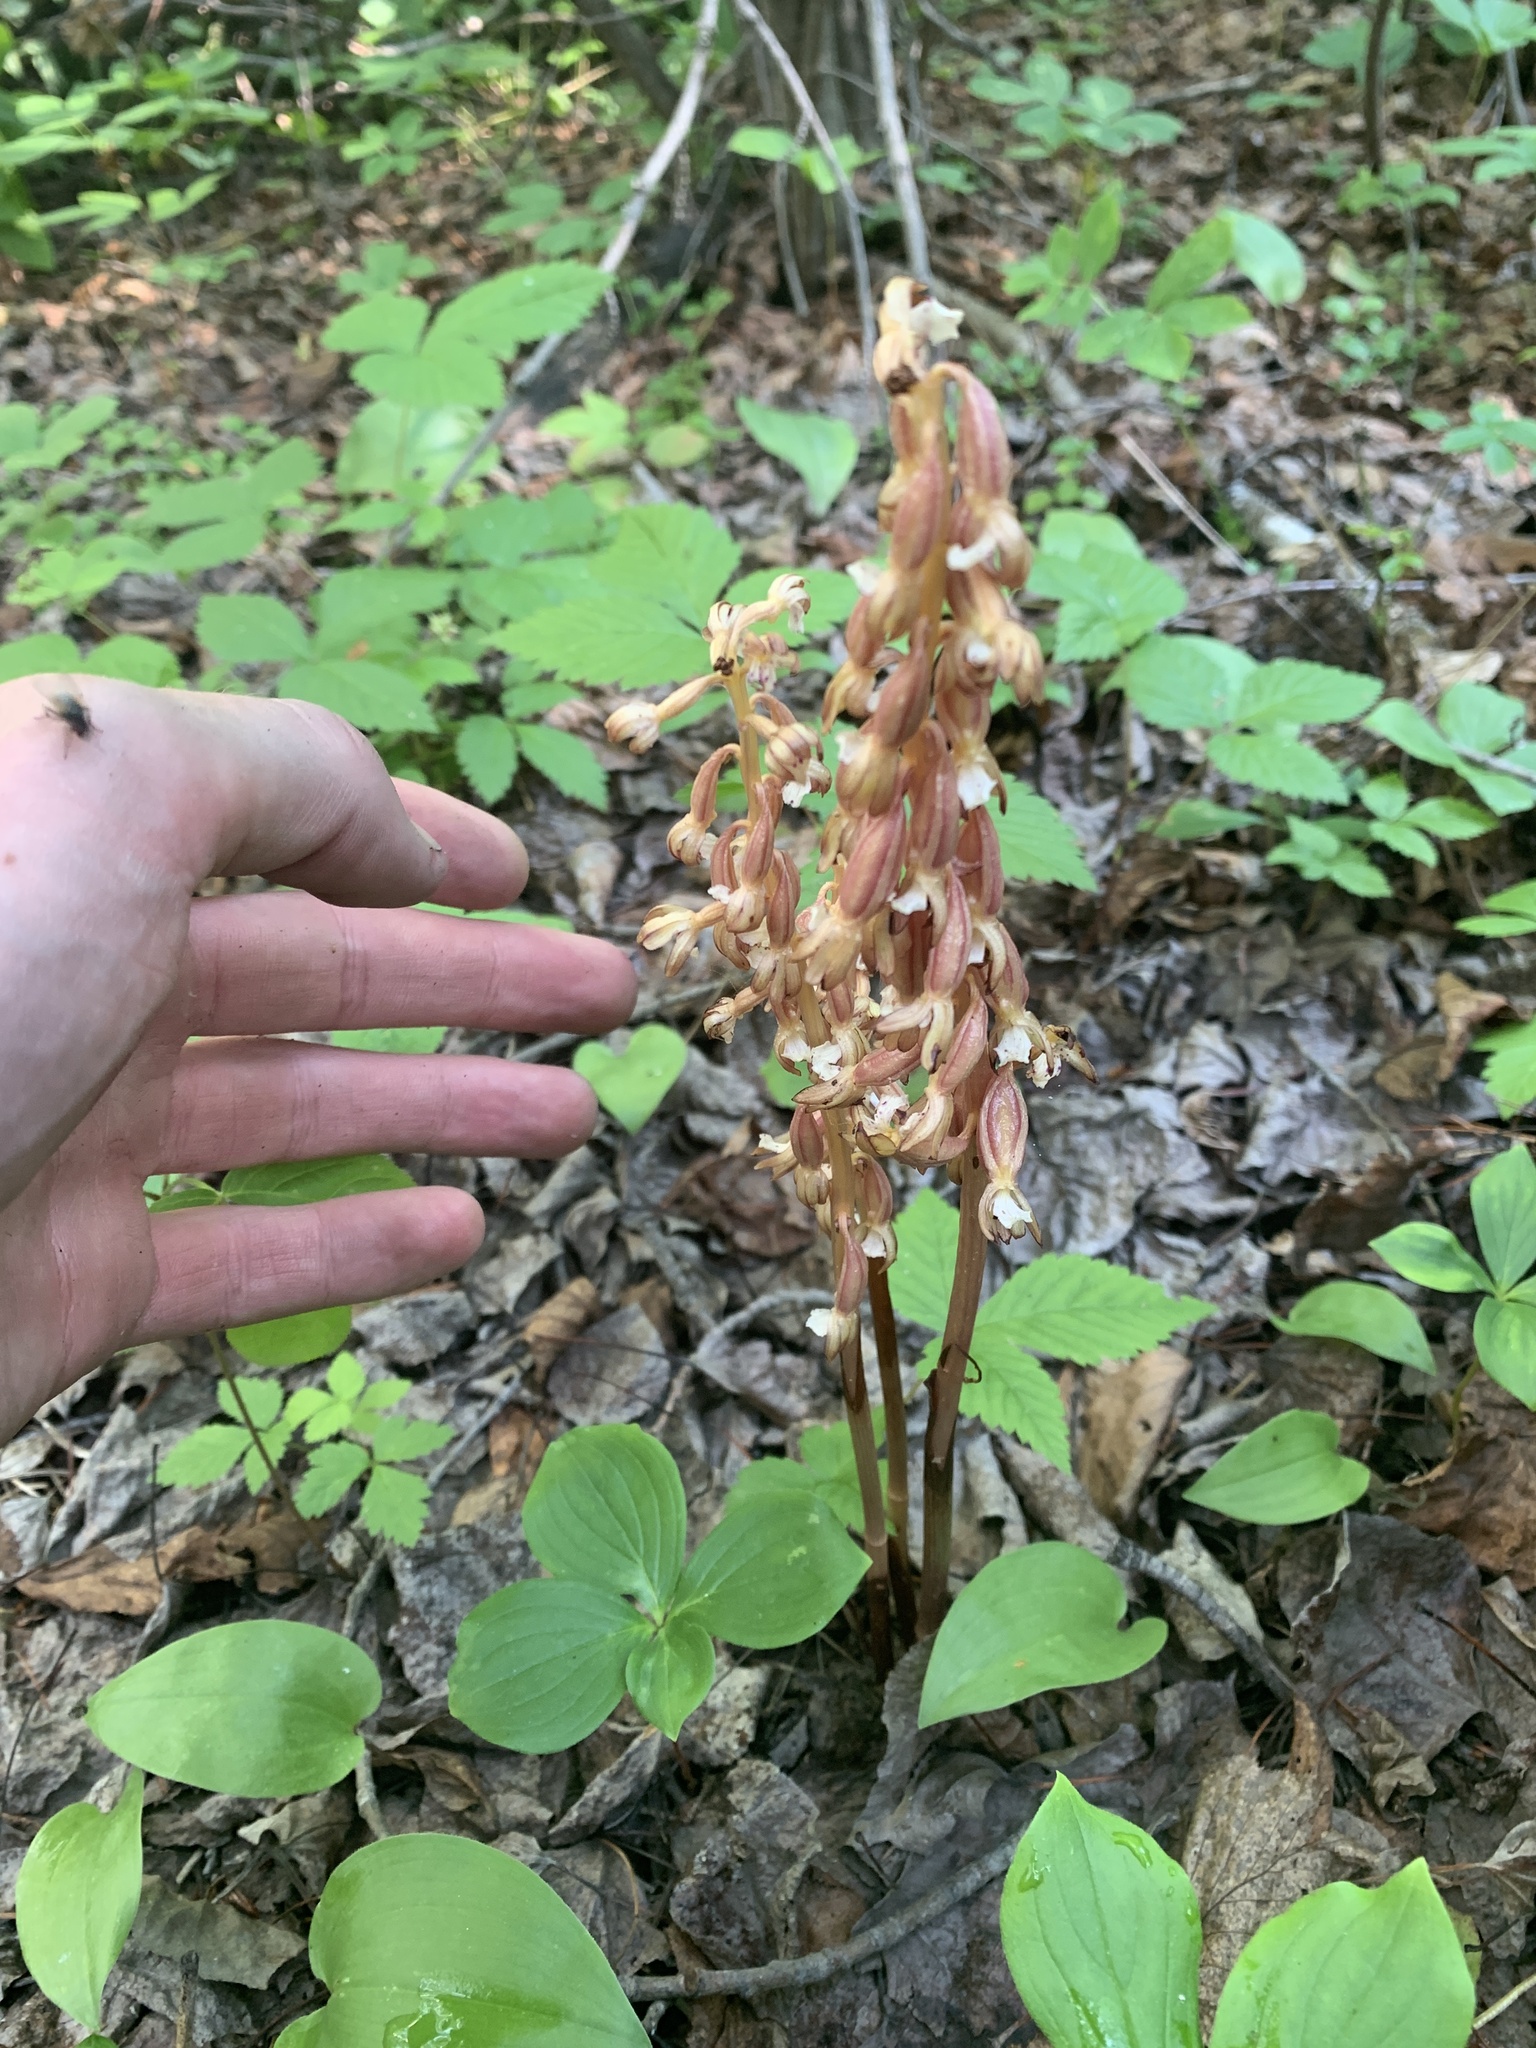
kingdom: Plantae
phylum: Tracheophyta
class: Liliopsida
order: Asparagales
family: Orchidaceae
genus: Corallorhiza
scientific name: Corallorhiza maculata
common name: Spotted coralroot
